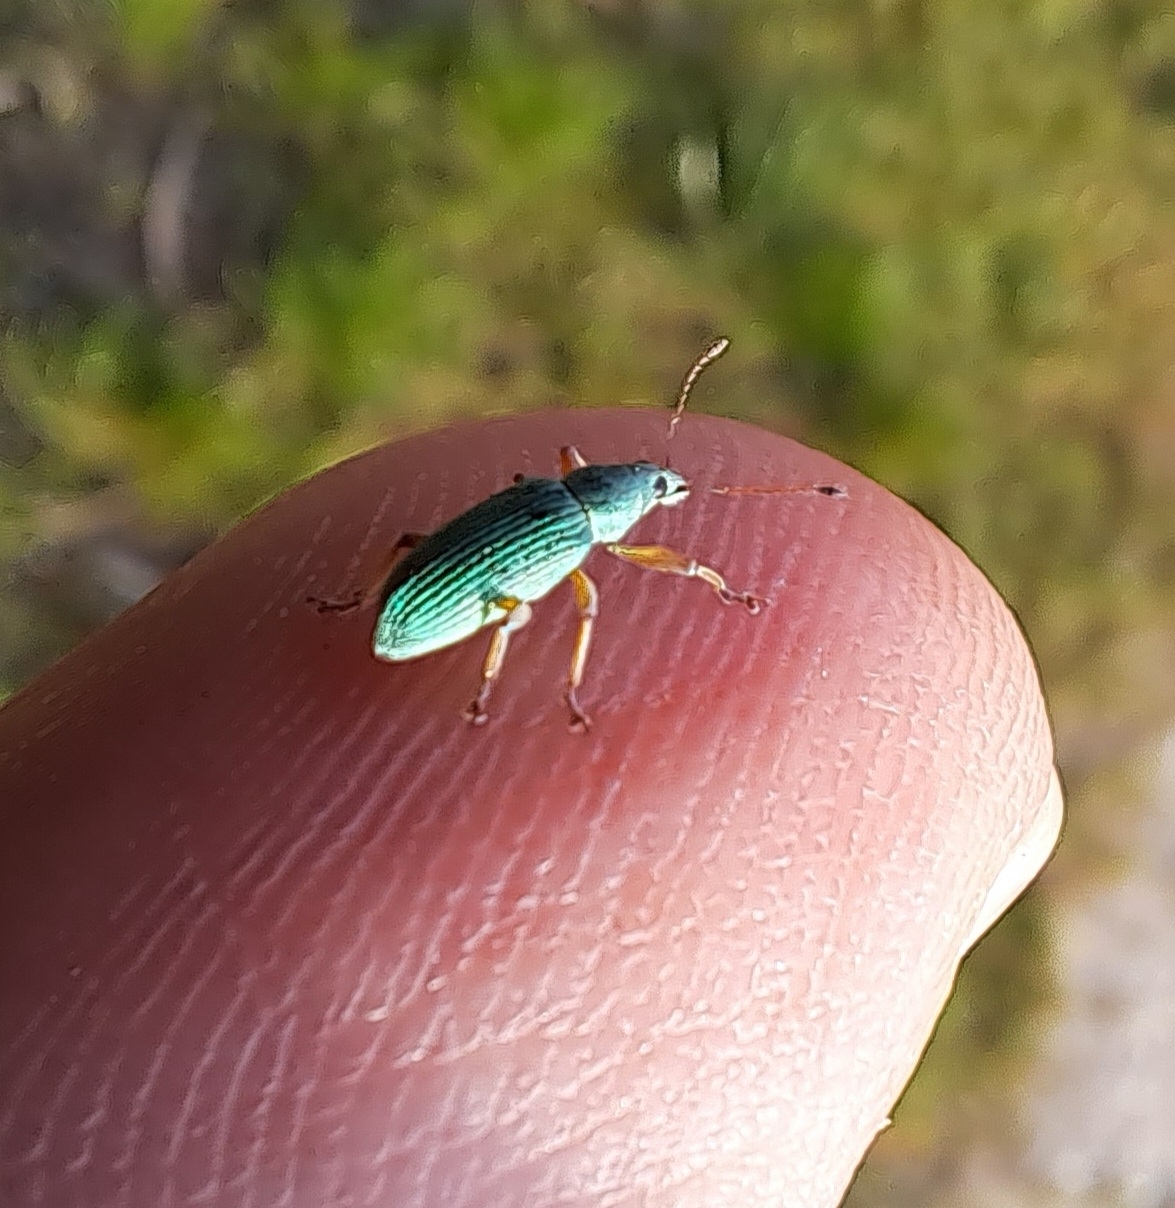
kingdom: Animalia
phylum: Arthropoda
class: Insecta
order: Coleoptera
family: Curculionidae
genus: Polydrusus
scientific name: Polydrusus formosus
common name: Weevil
